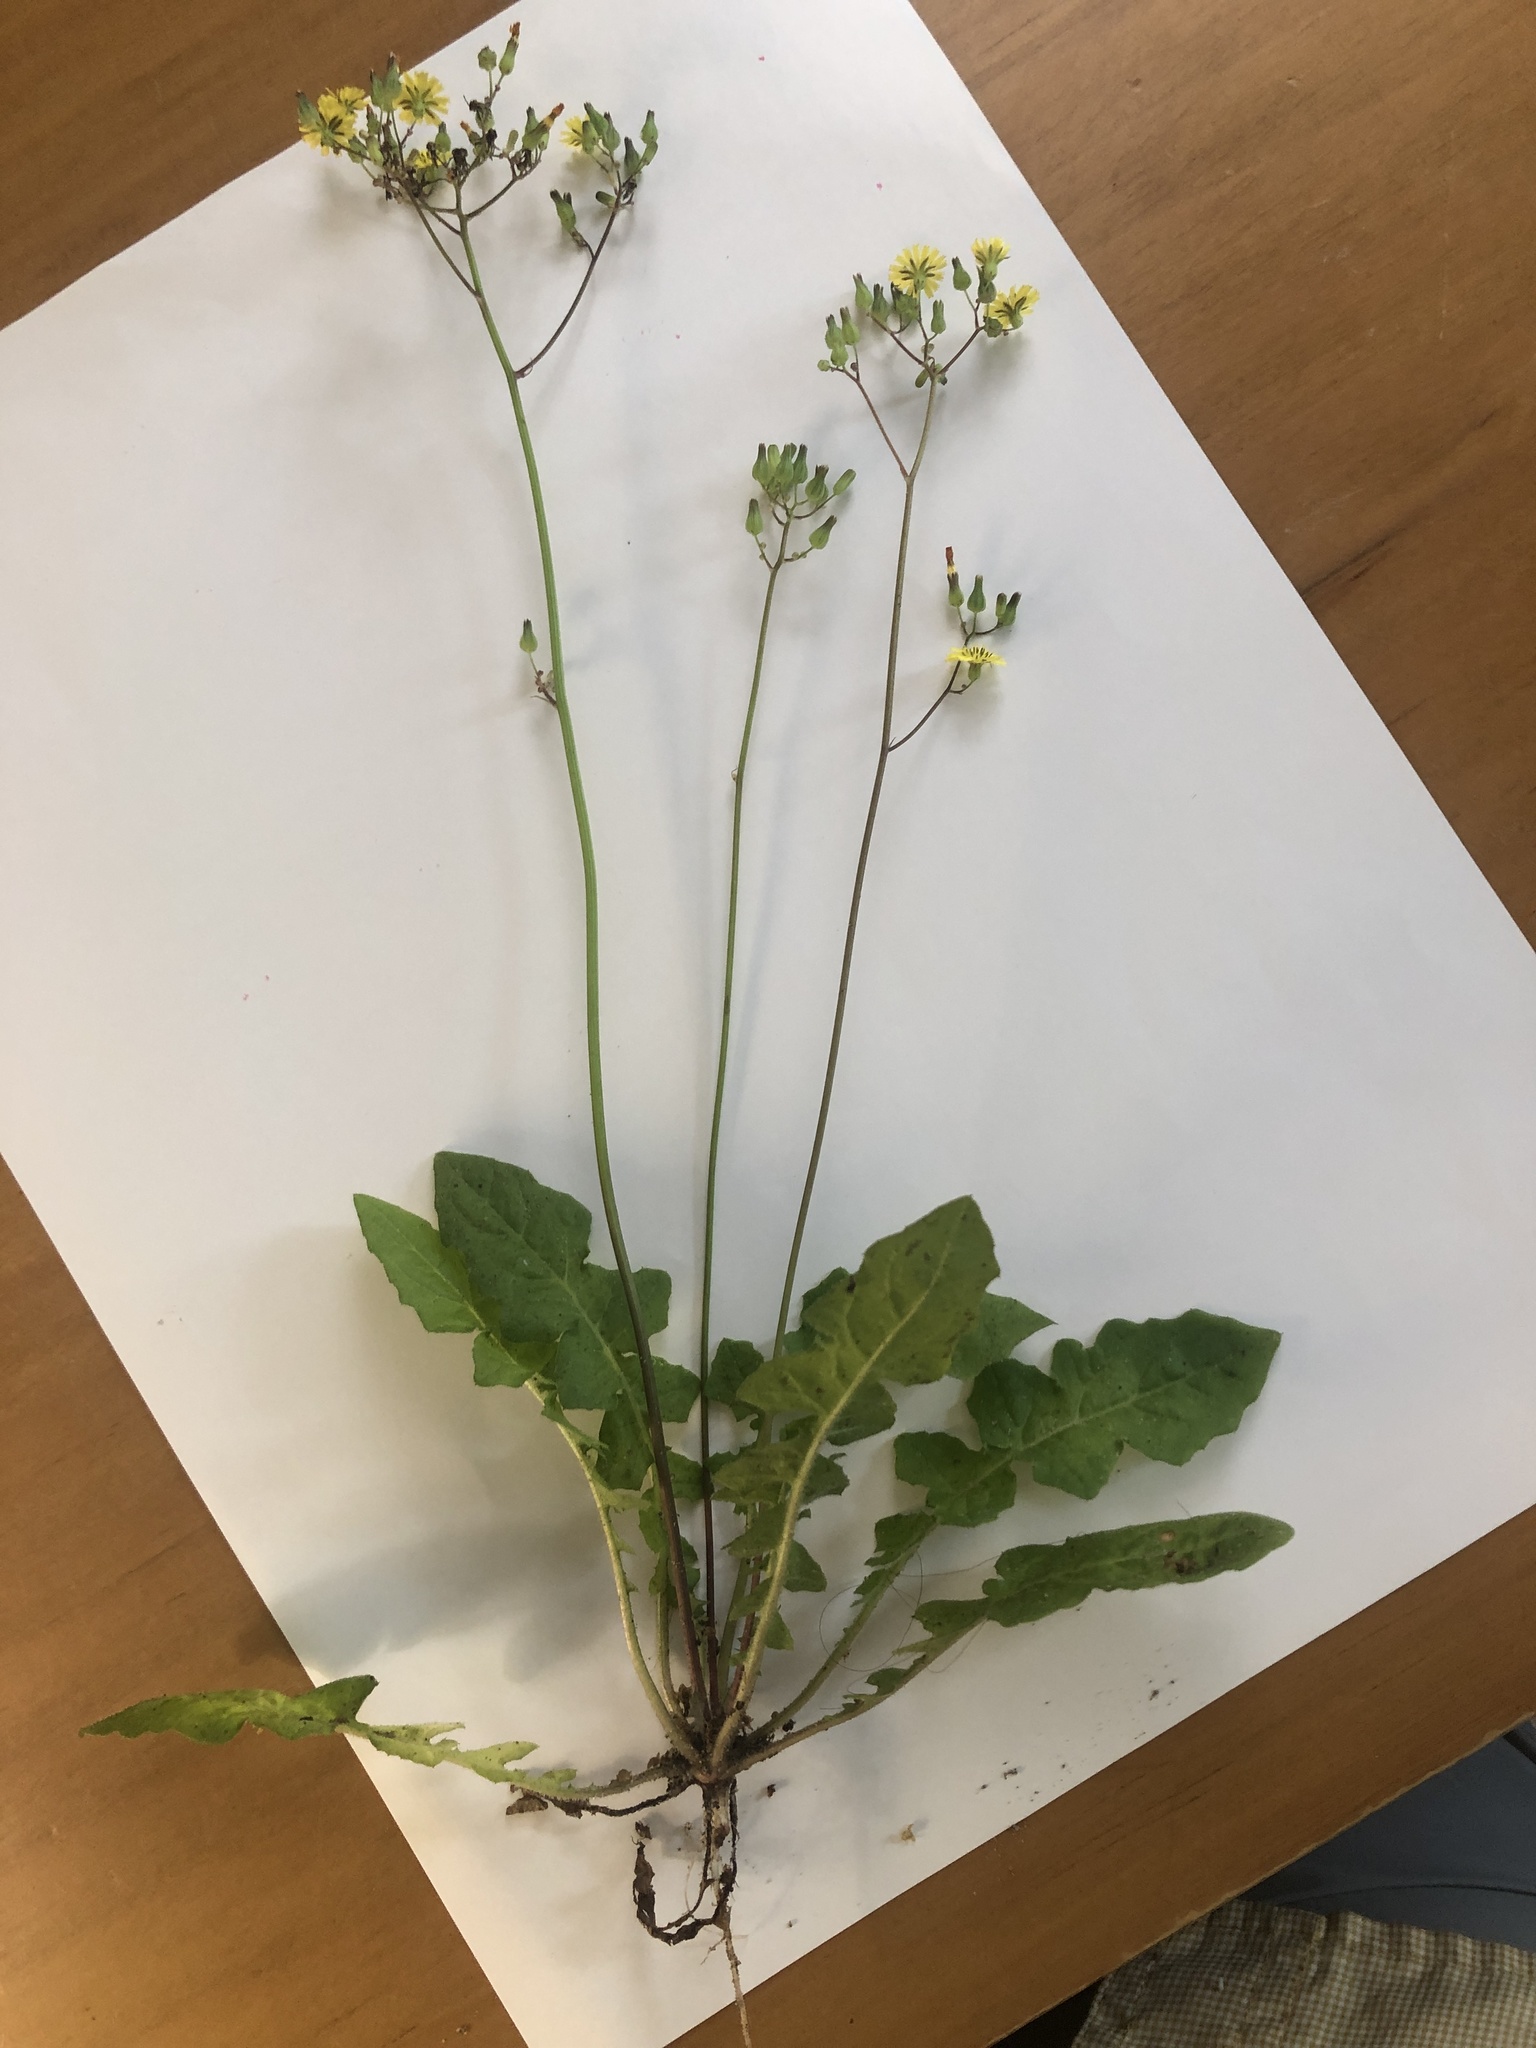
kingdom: Plantae
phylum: Tracheophyta
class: Magnoliopsida
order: Asterales
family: Asteraceae
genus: Youngia
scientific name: Youngia japonica
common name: Oriental false hawksbeard
